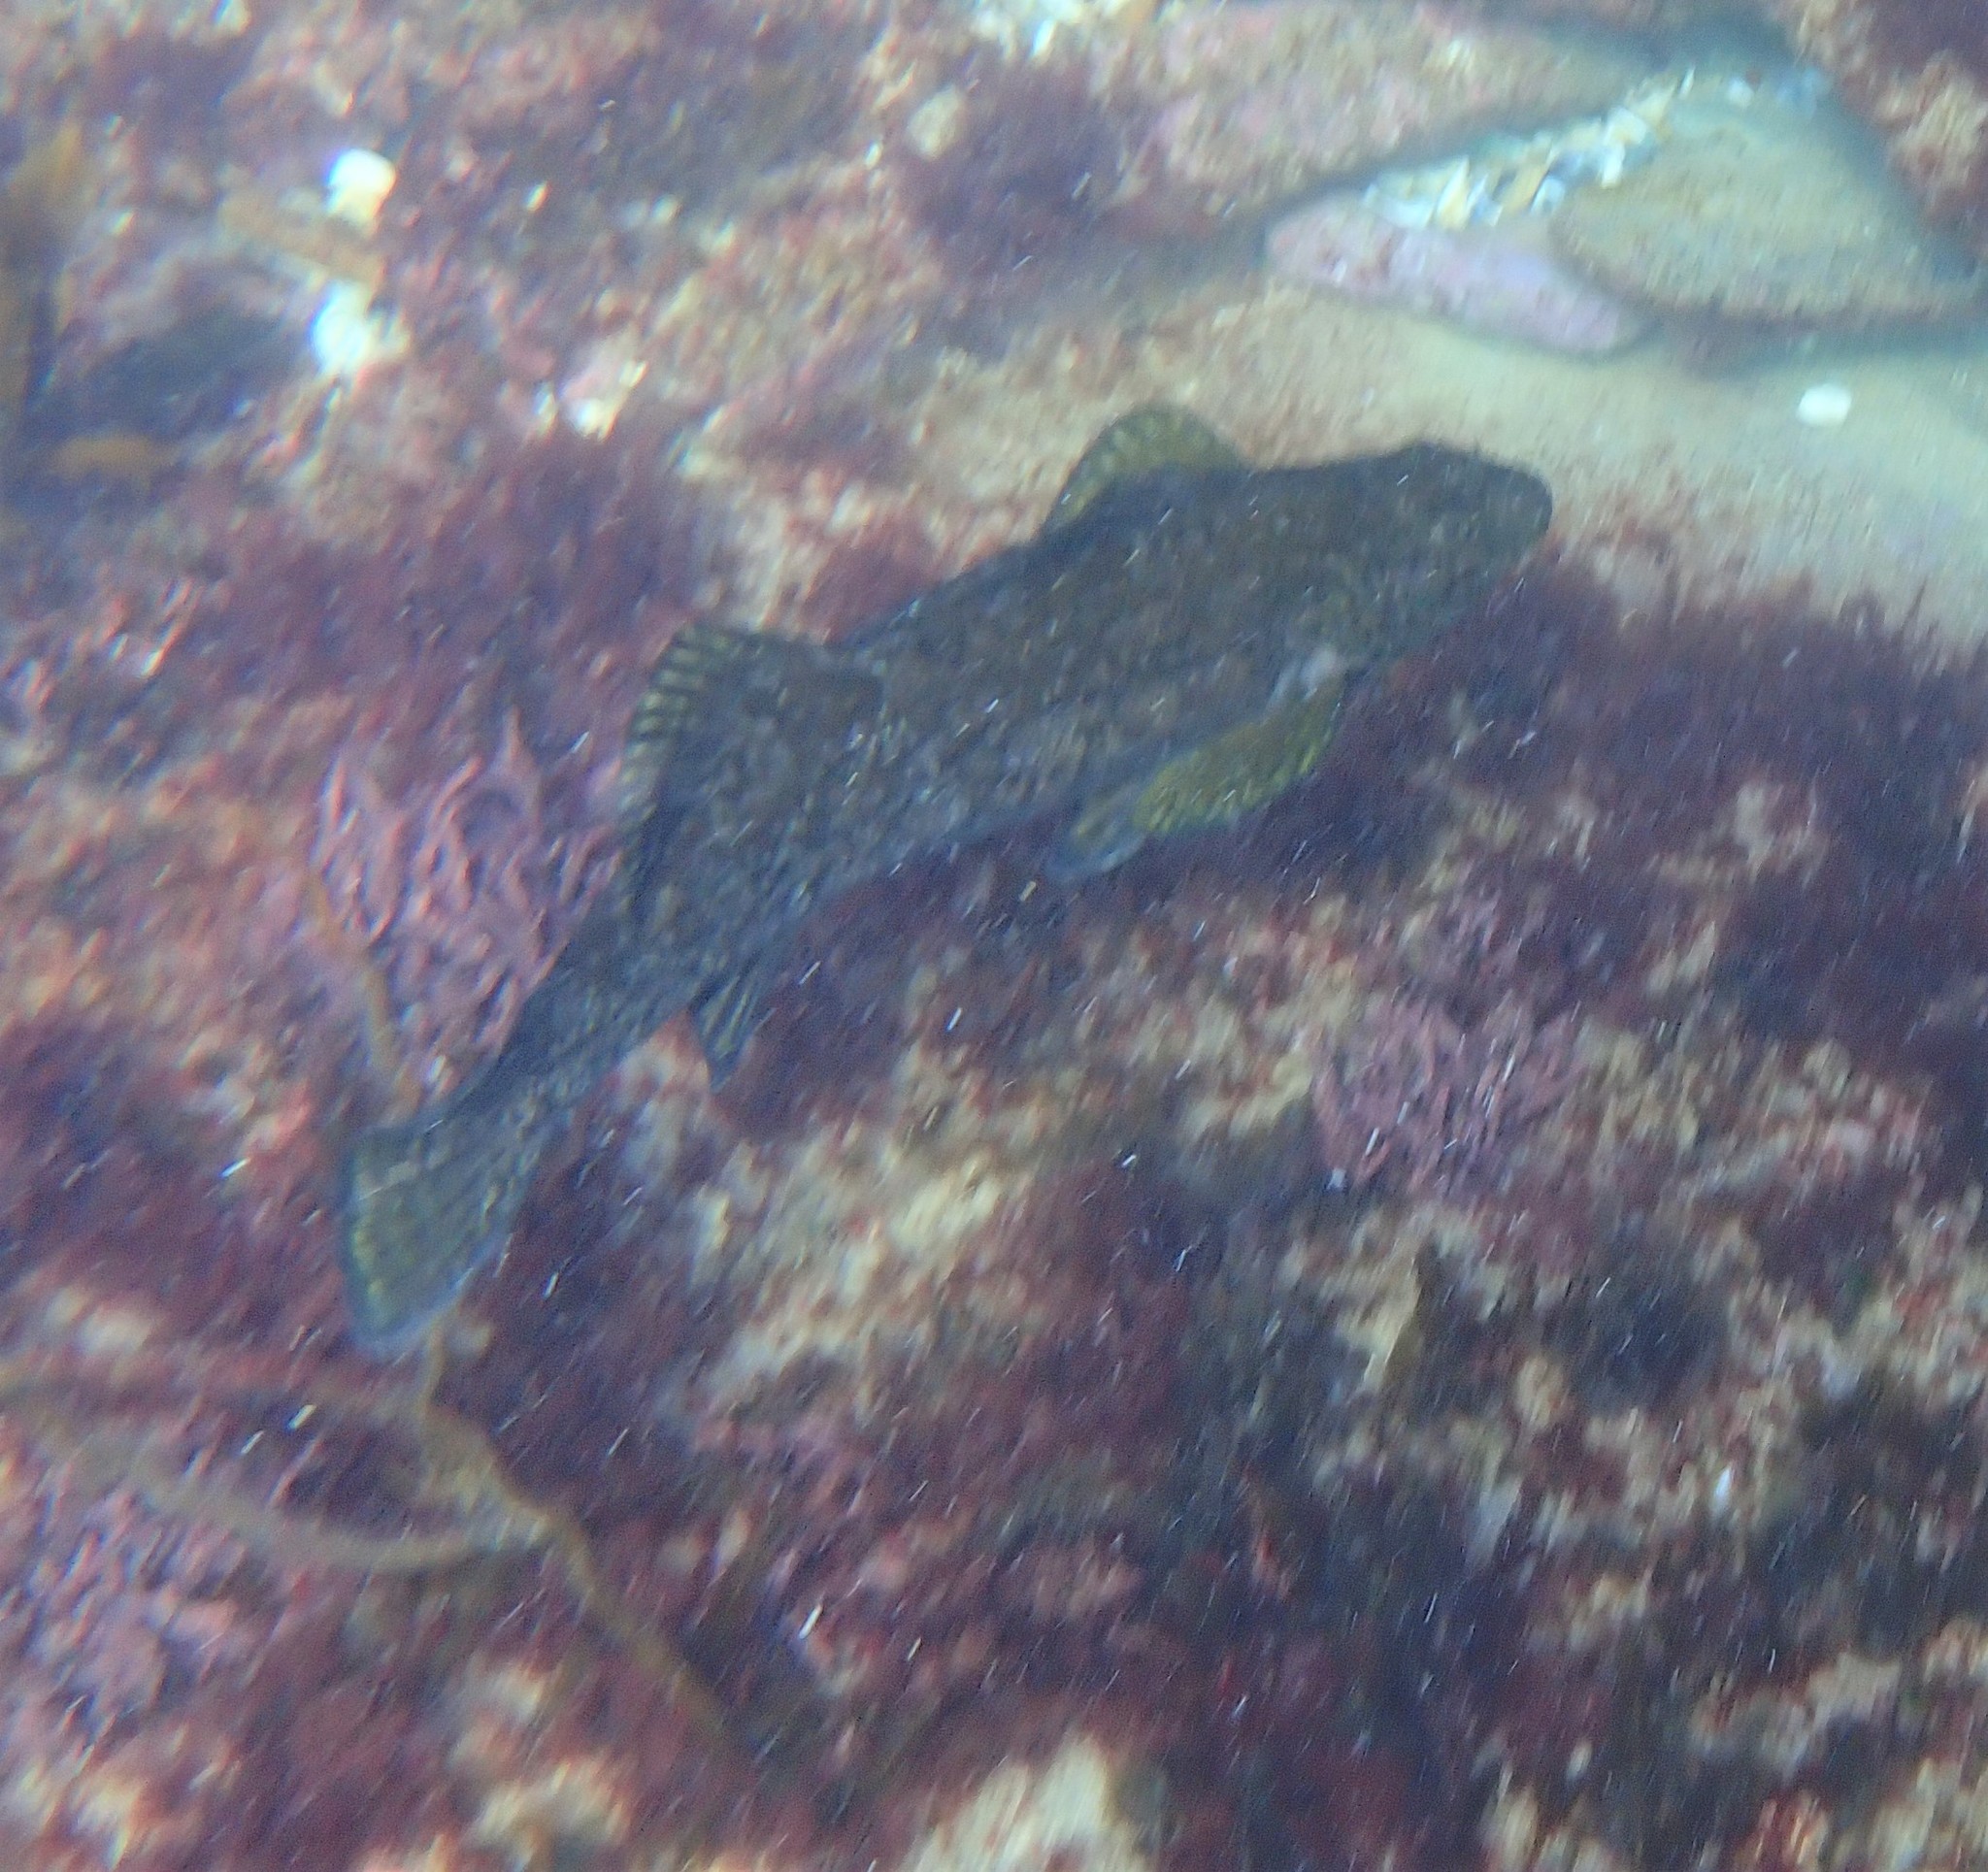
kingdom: Animalia
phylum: Chordata
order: Perciformes
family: Aplodactylidae
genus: Aplodactylus
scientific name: Aplodactylus arctidens
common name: Marblefish
